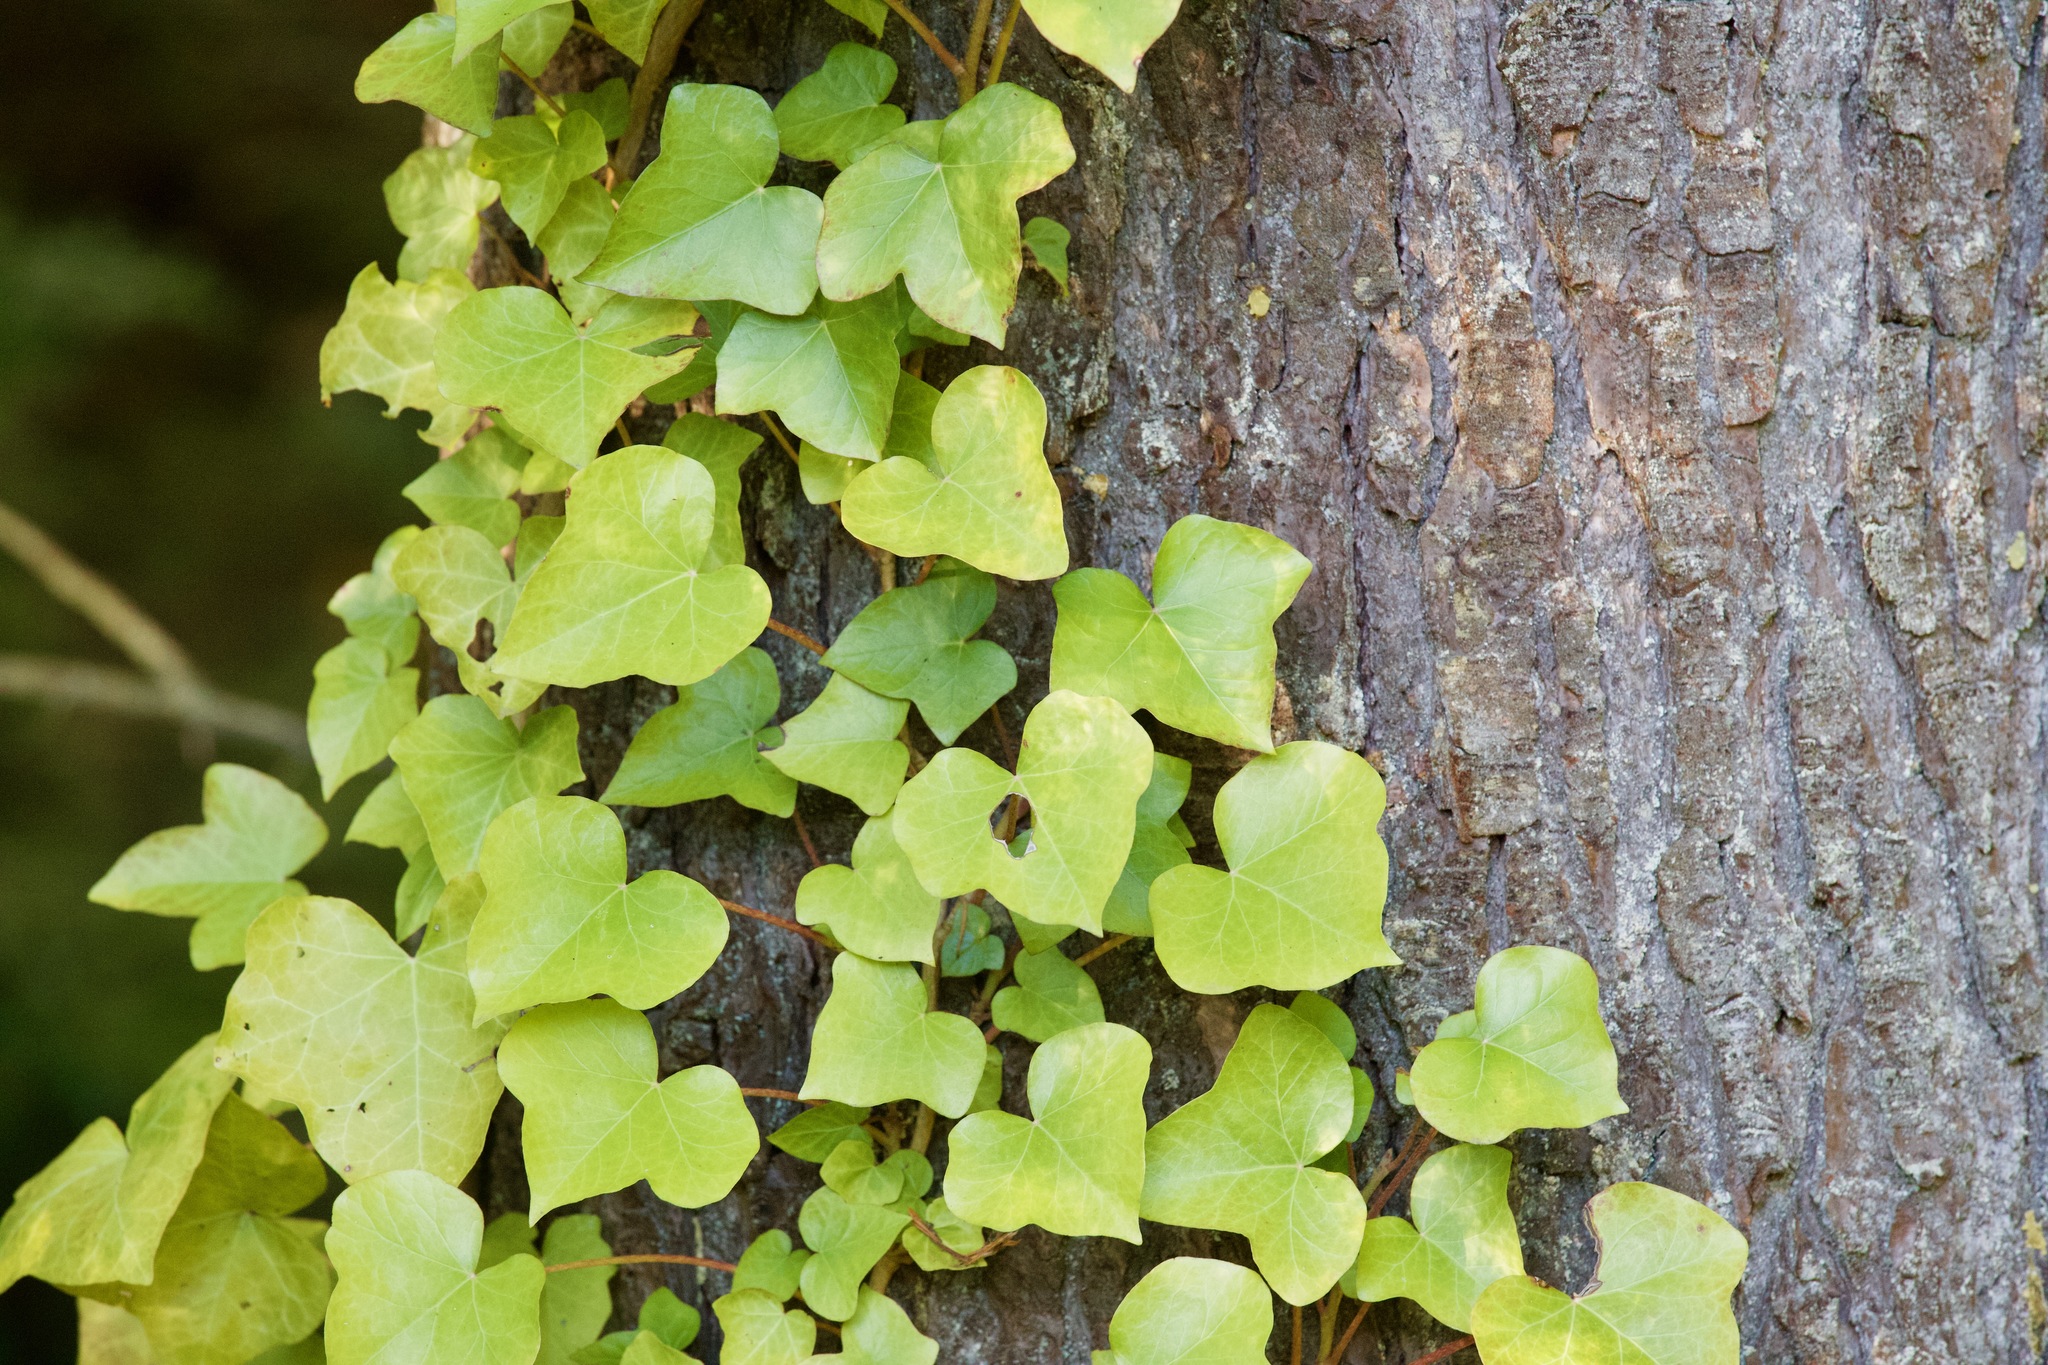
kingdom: Plantae
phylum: Tracheophyta
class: Magnoliopsida
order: Apiales
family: Araliaceae
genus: Hedera
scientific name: Hedera hibernica
